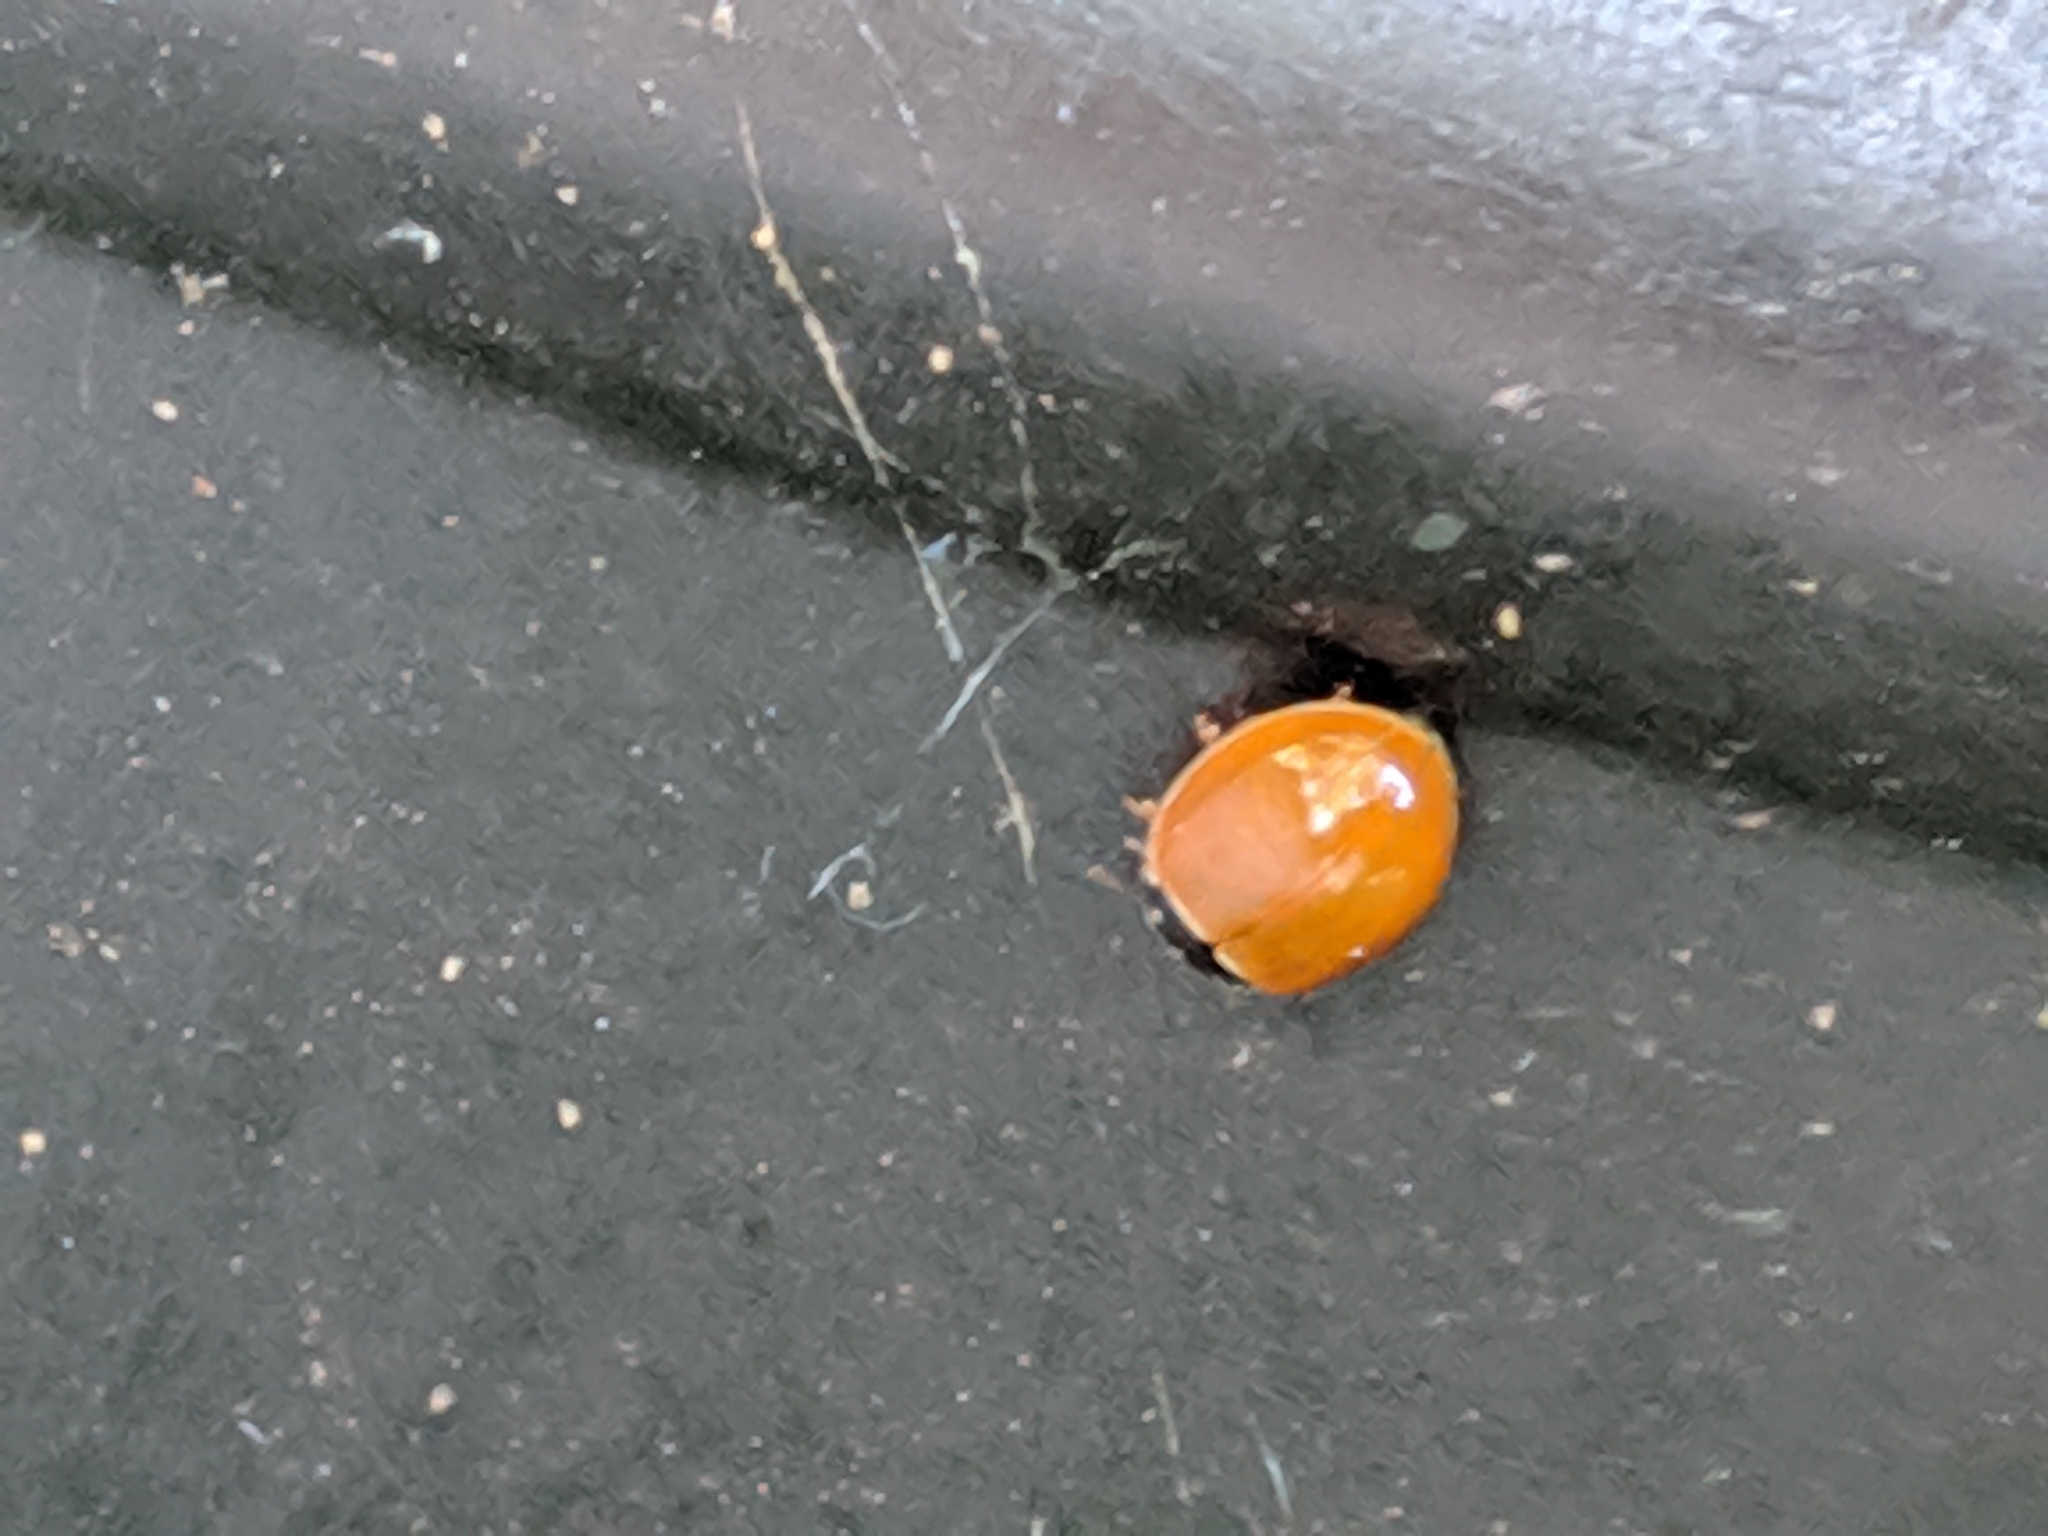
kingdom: Animalia
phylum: Arthropoda
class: Insecta
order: Coleoptera
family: Coccinellidae
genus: Cycloneda
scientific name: Cycloneda munda
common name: Polished lady beetle
